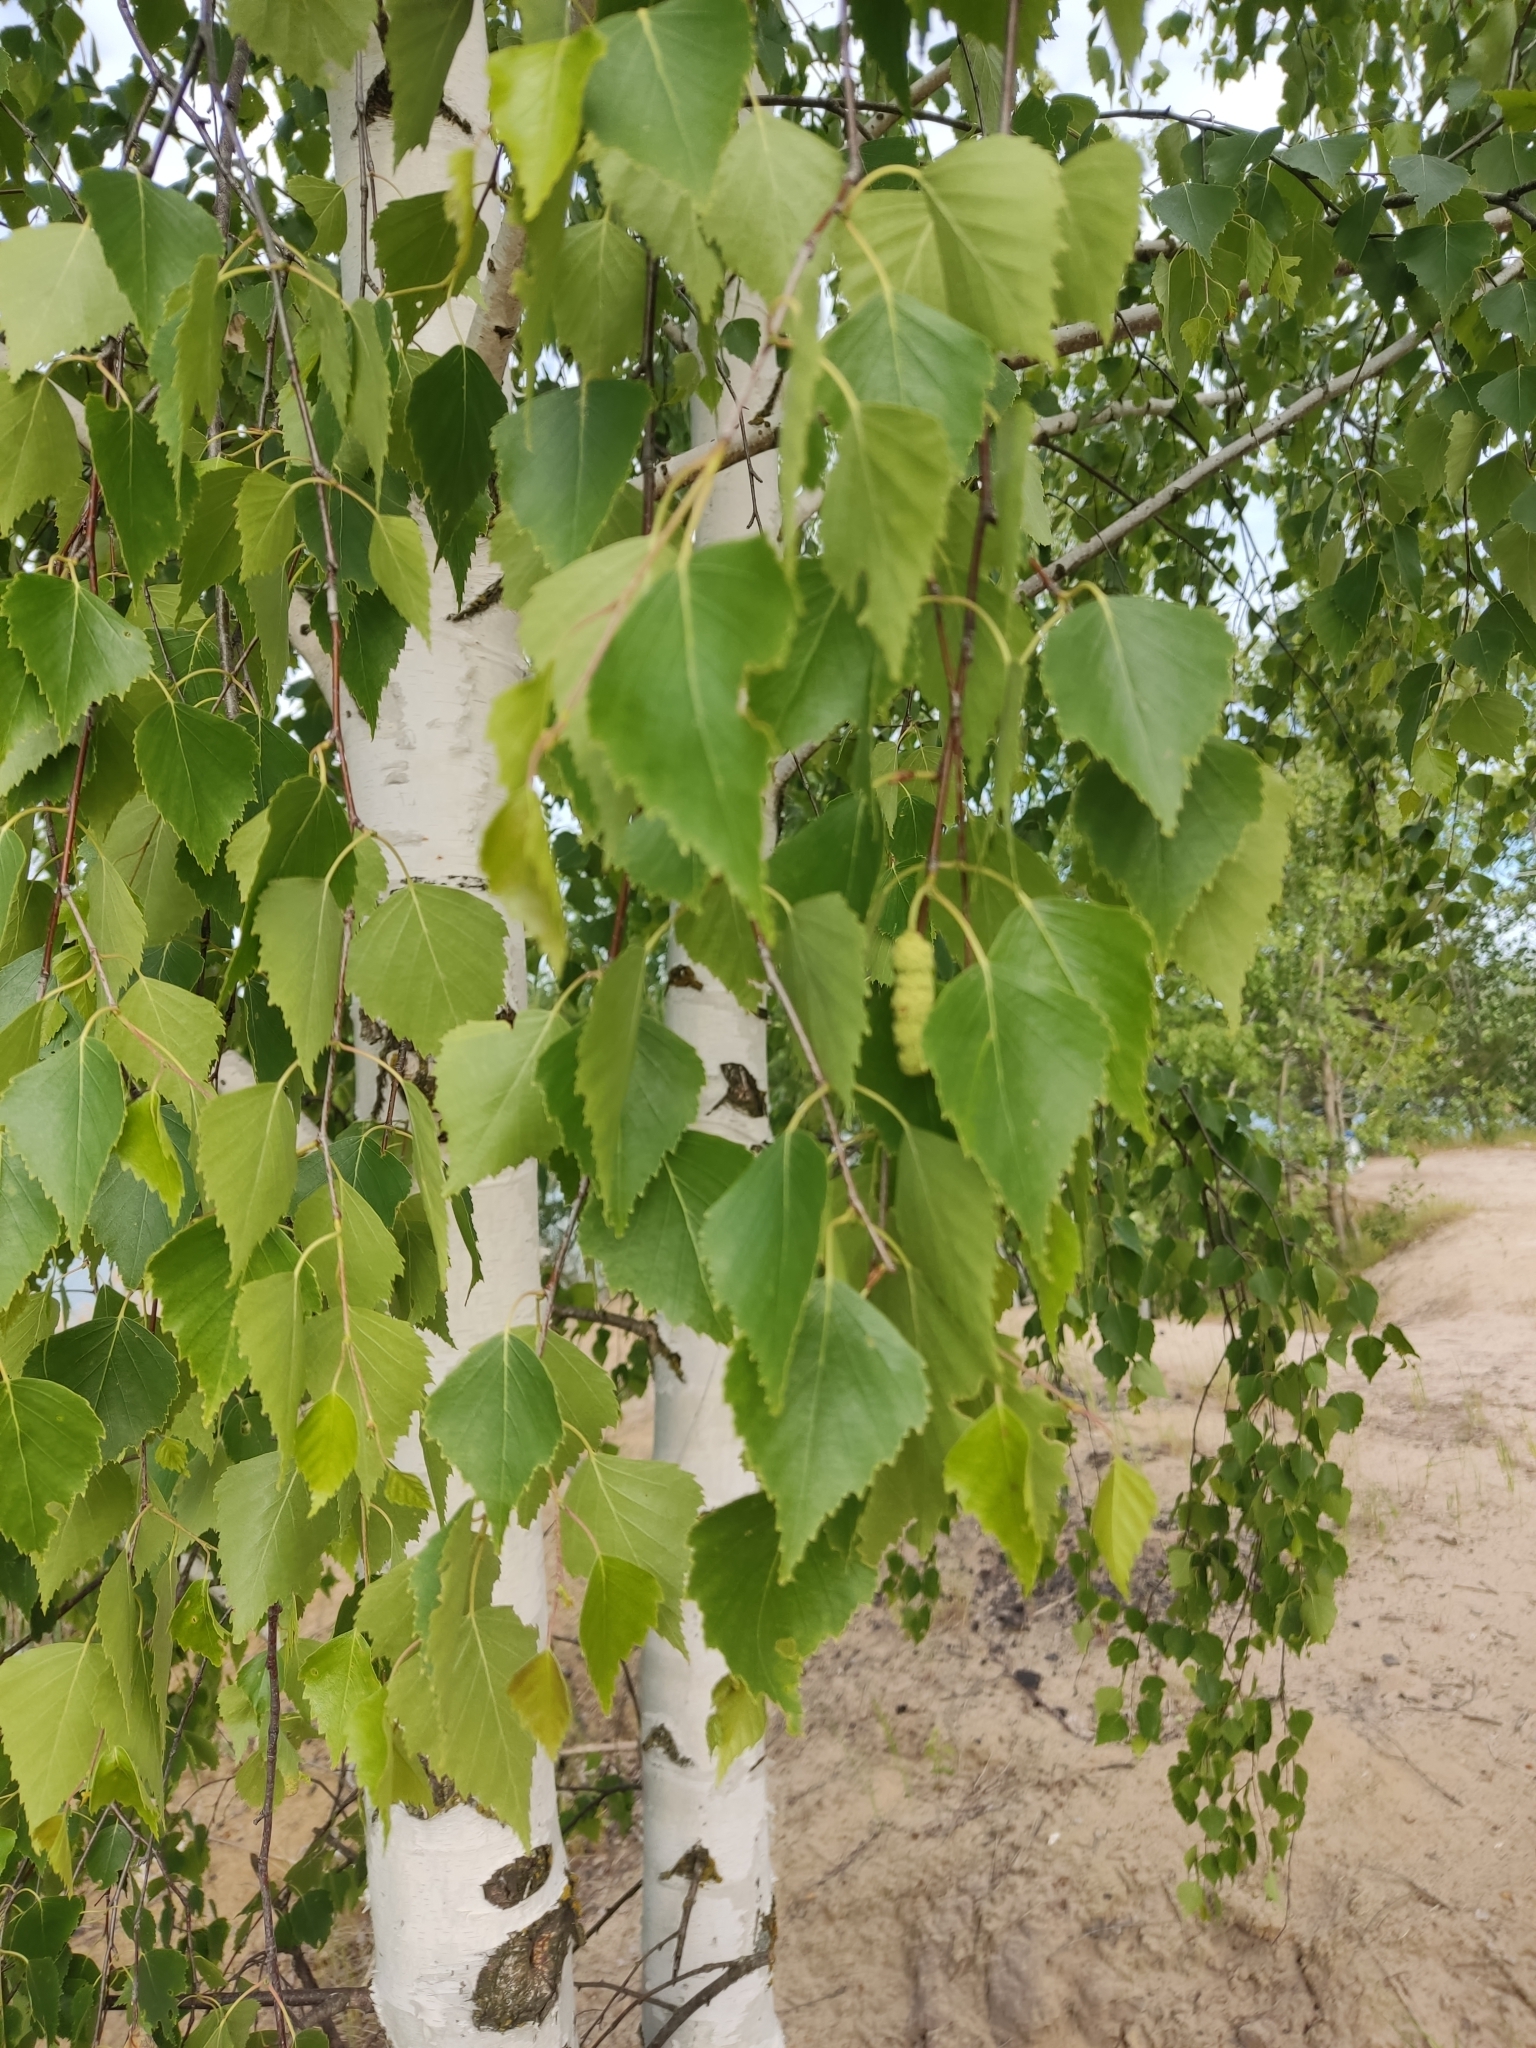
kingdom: Plantae
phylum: Tracheophyta
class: Magnoliopsida
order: Fagales
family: Betulaceae
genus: Betula
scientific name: Betula pendula
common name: Silver birch
